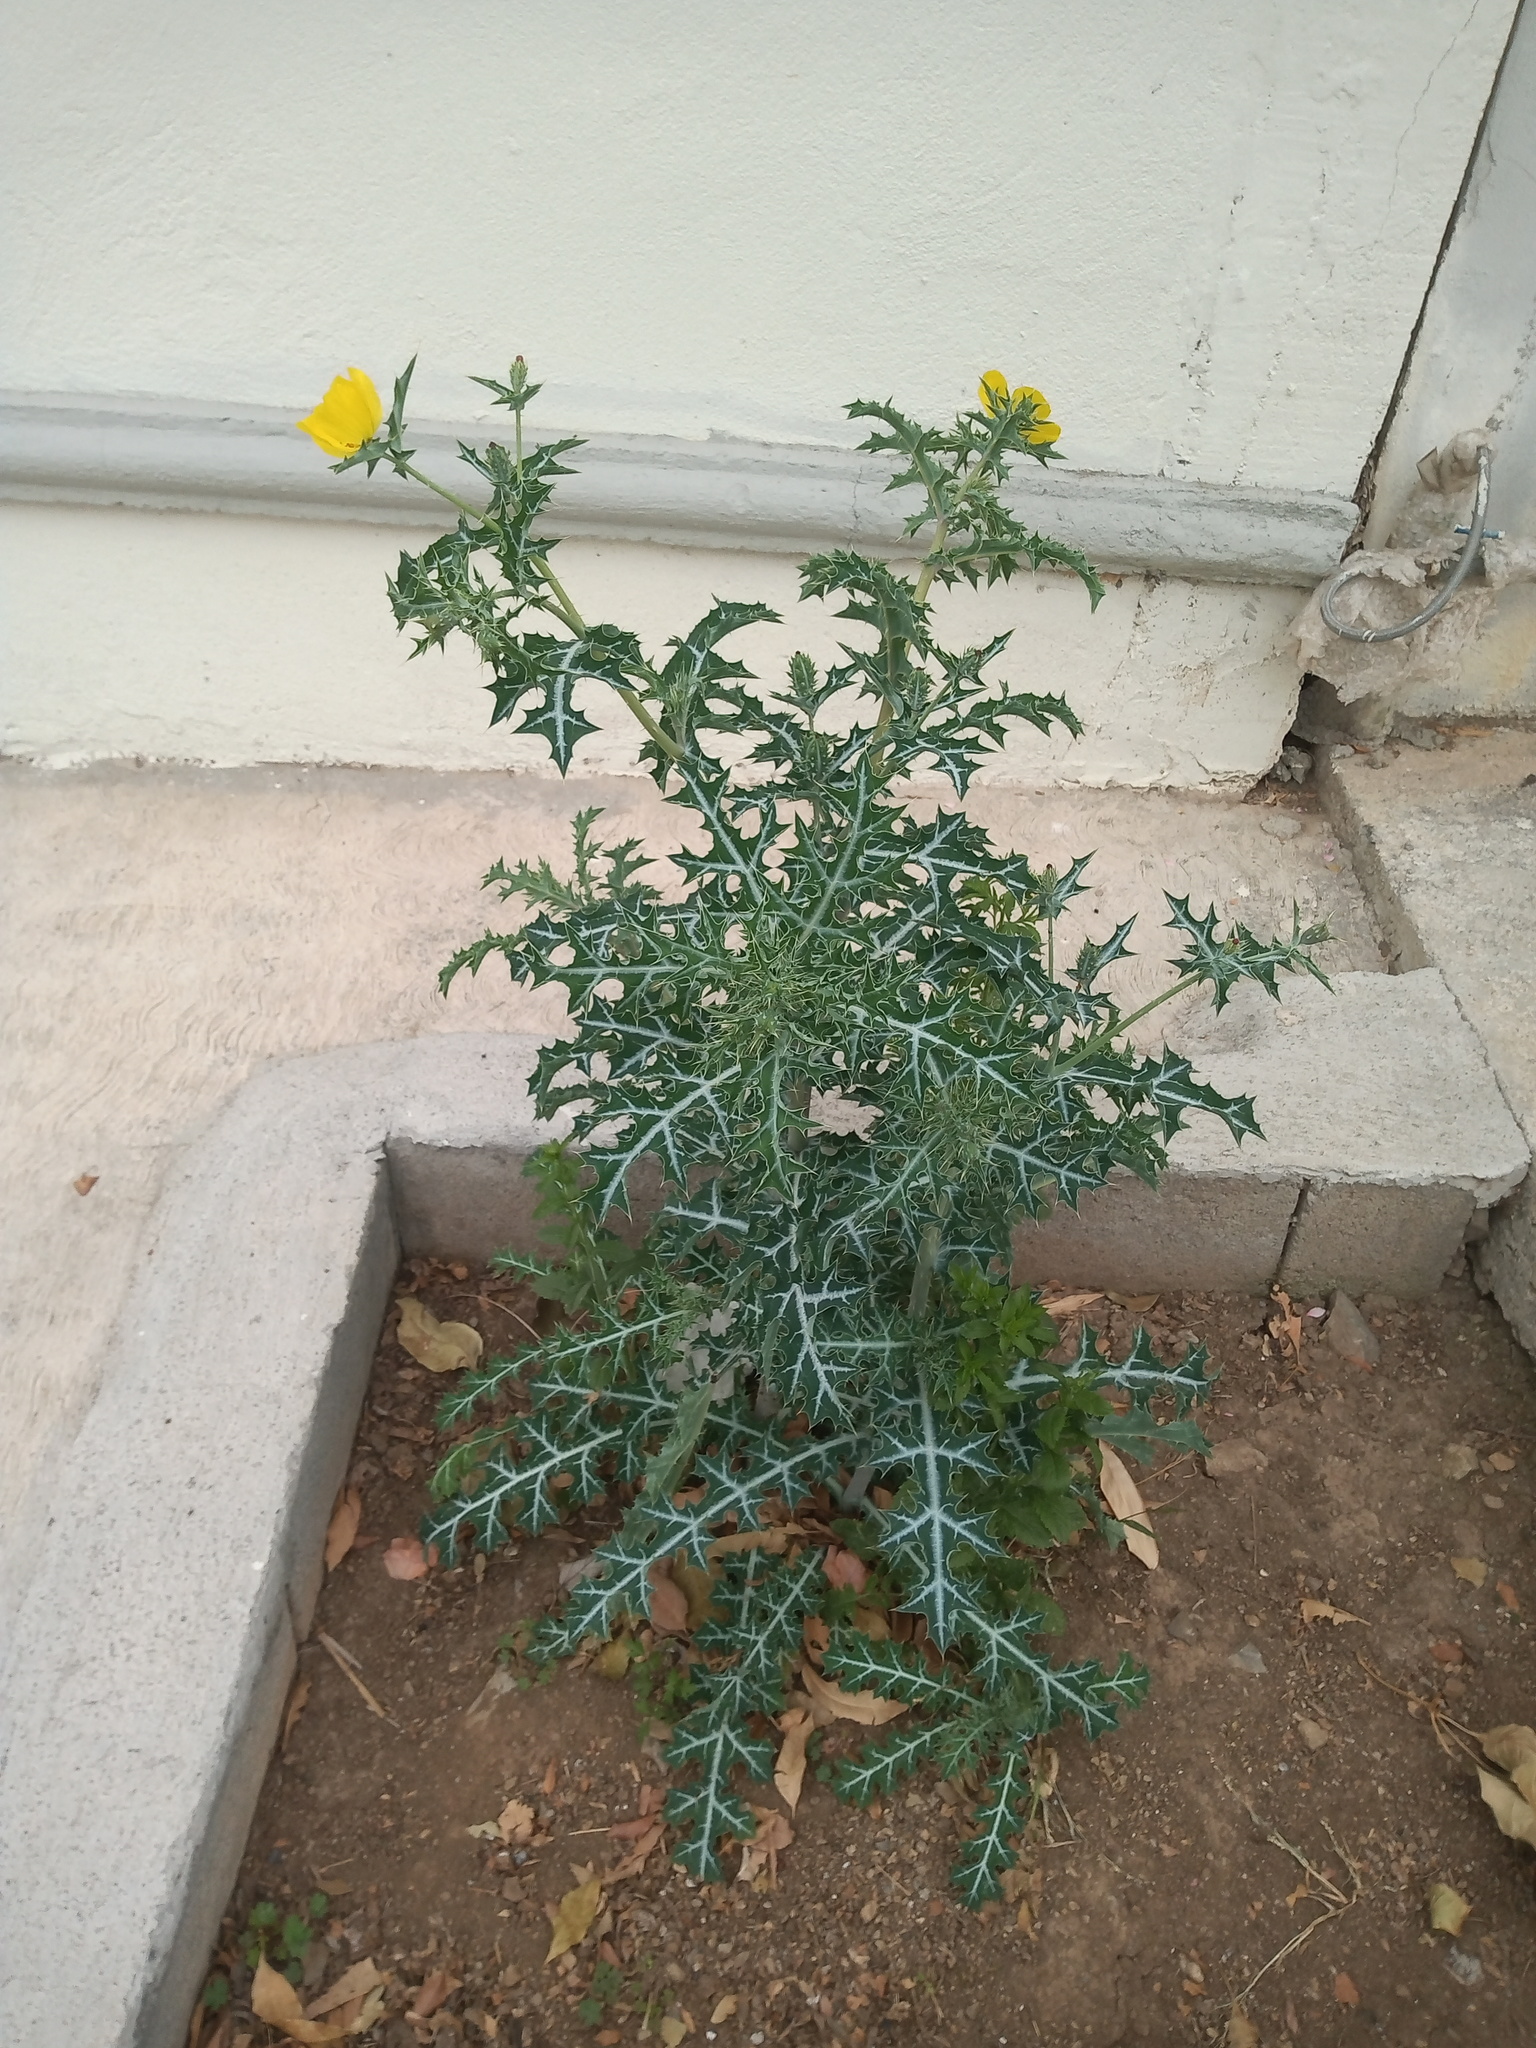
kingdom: Plantae
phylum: Tracheophyta
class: Magnoliopsida
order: Ranunculales
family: Papaveraceae
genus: Argemone
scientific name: Argemone mexicana
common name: Mexican poppy
